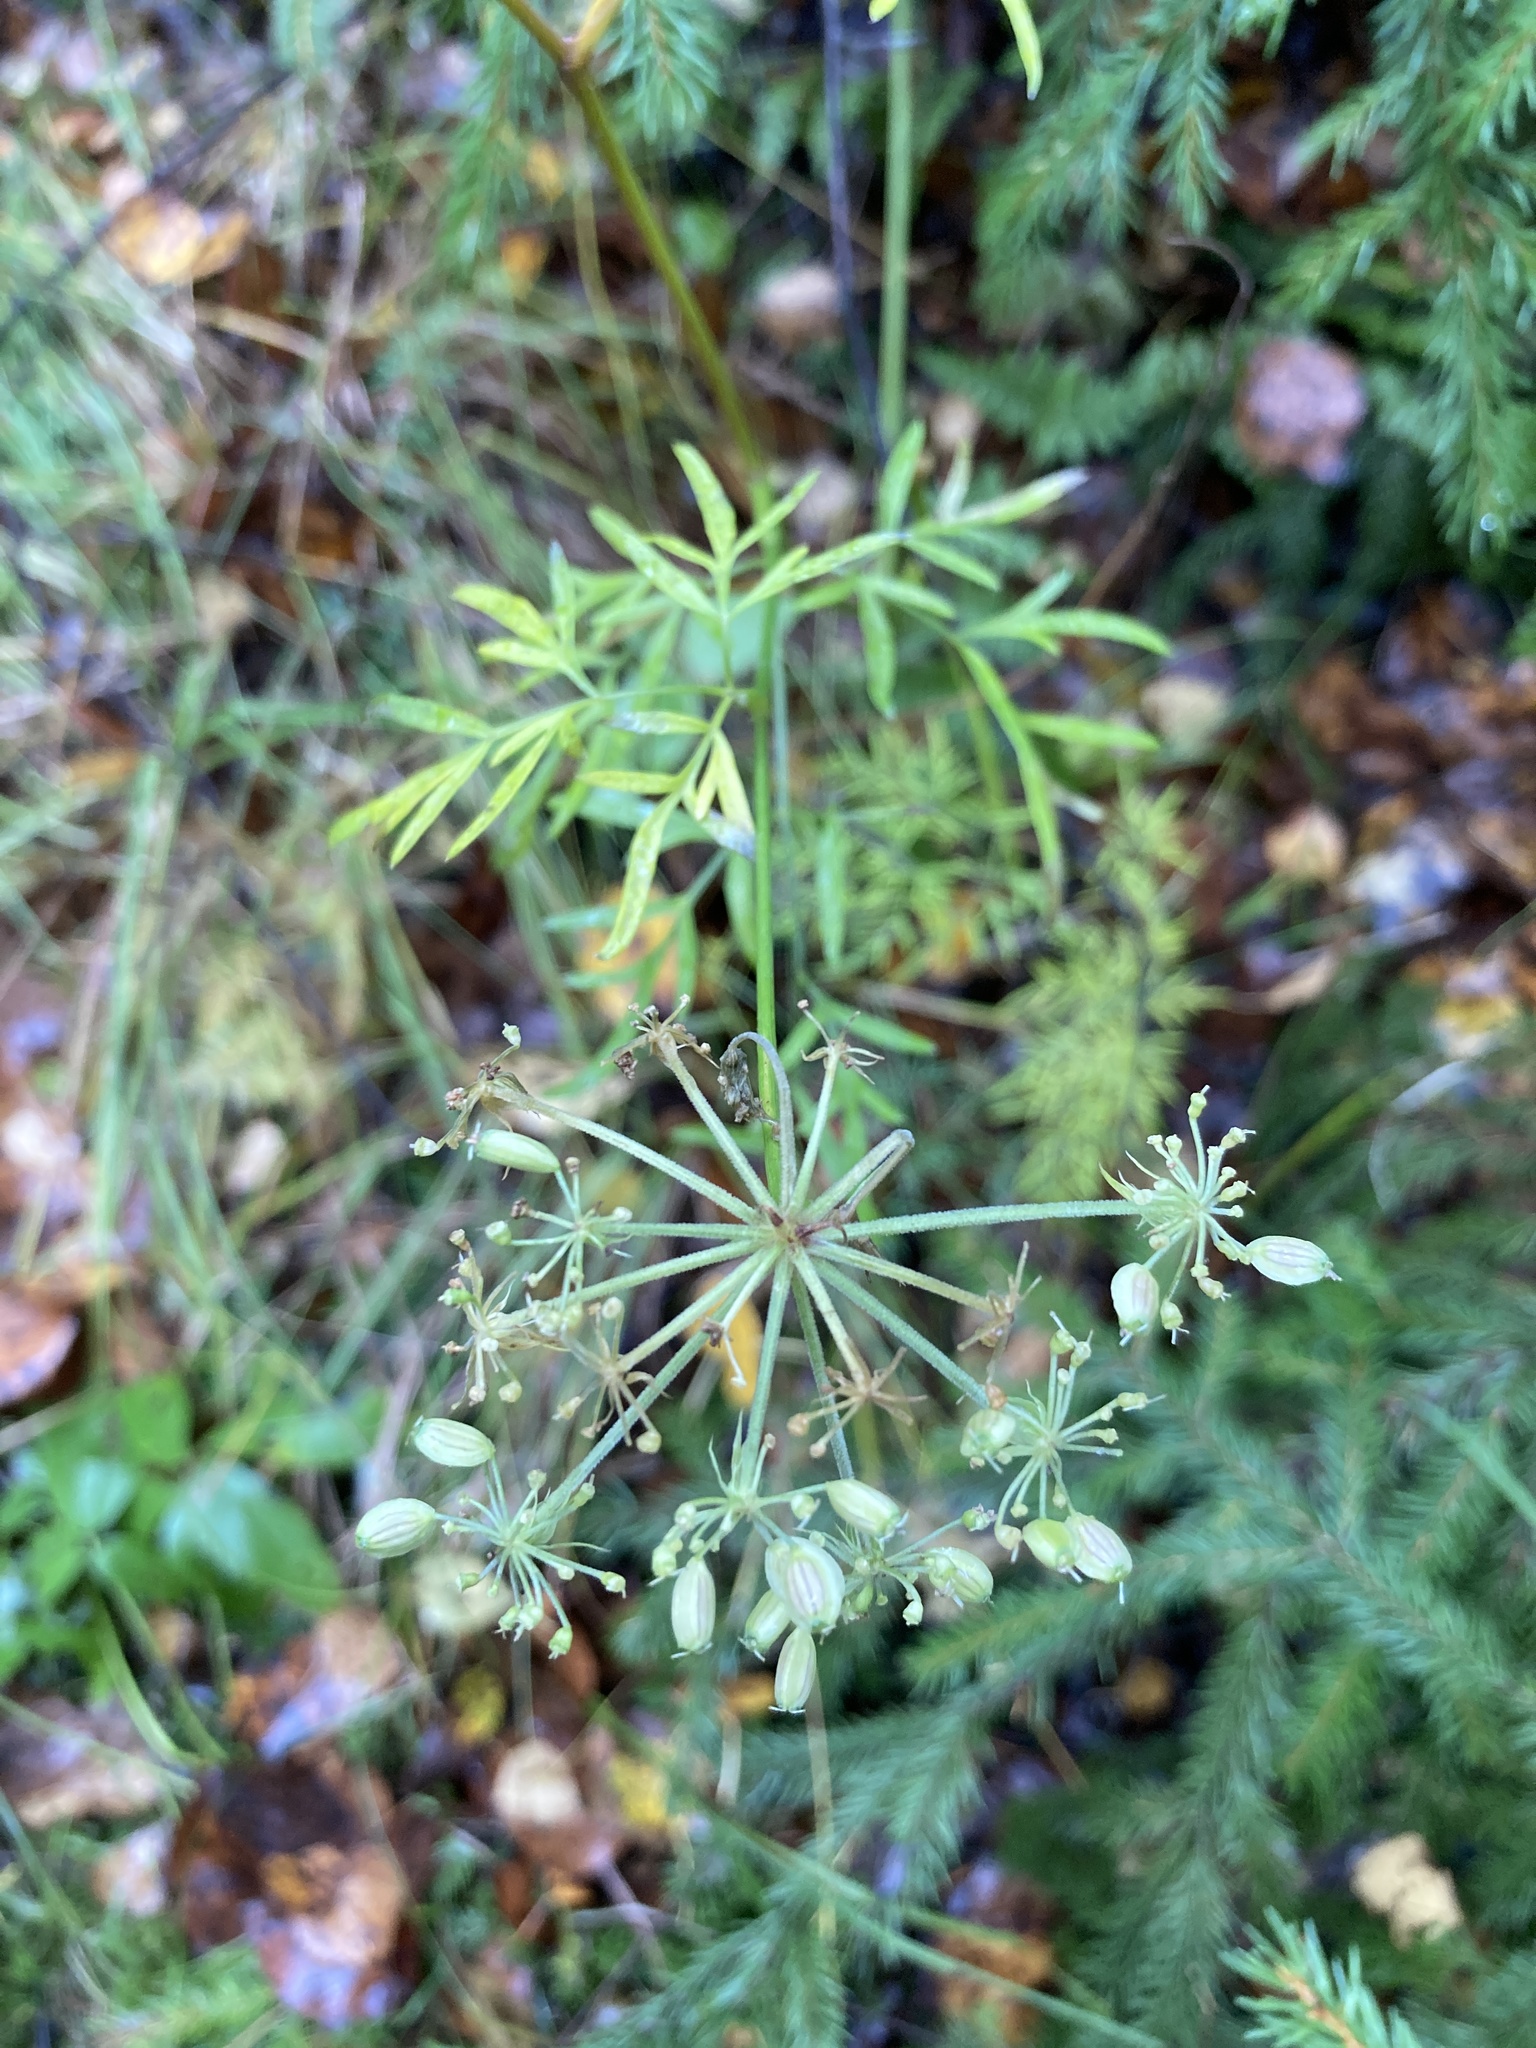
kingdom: Plantae
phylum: Tracheophyta
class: Magnoliopsida
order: Apiales
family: Apiaceae
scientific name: Apiaceae
